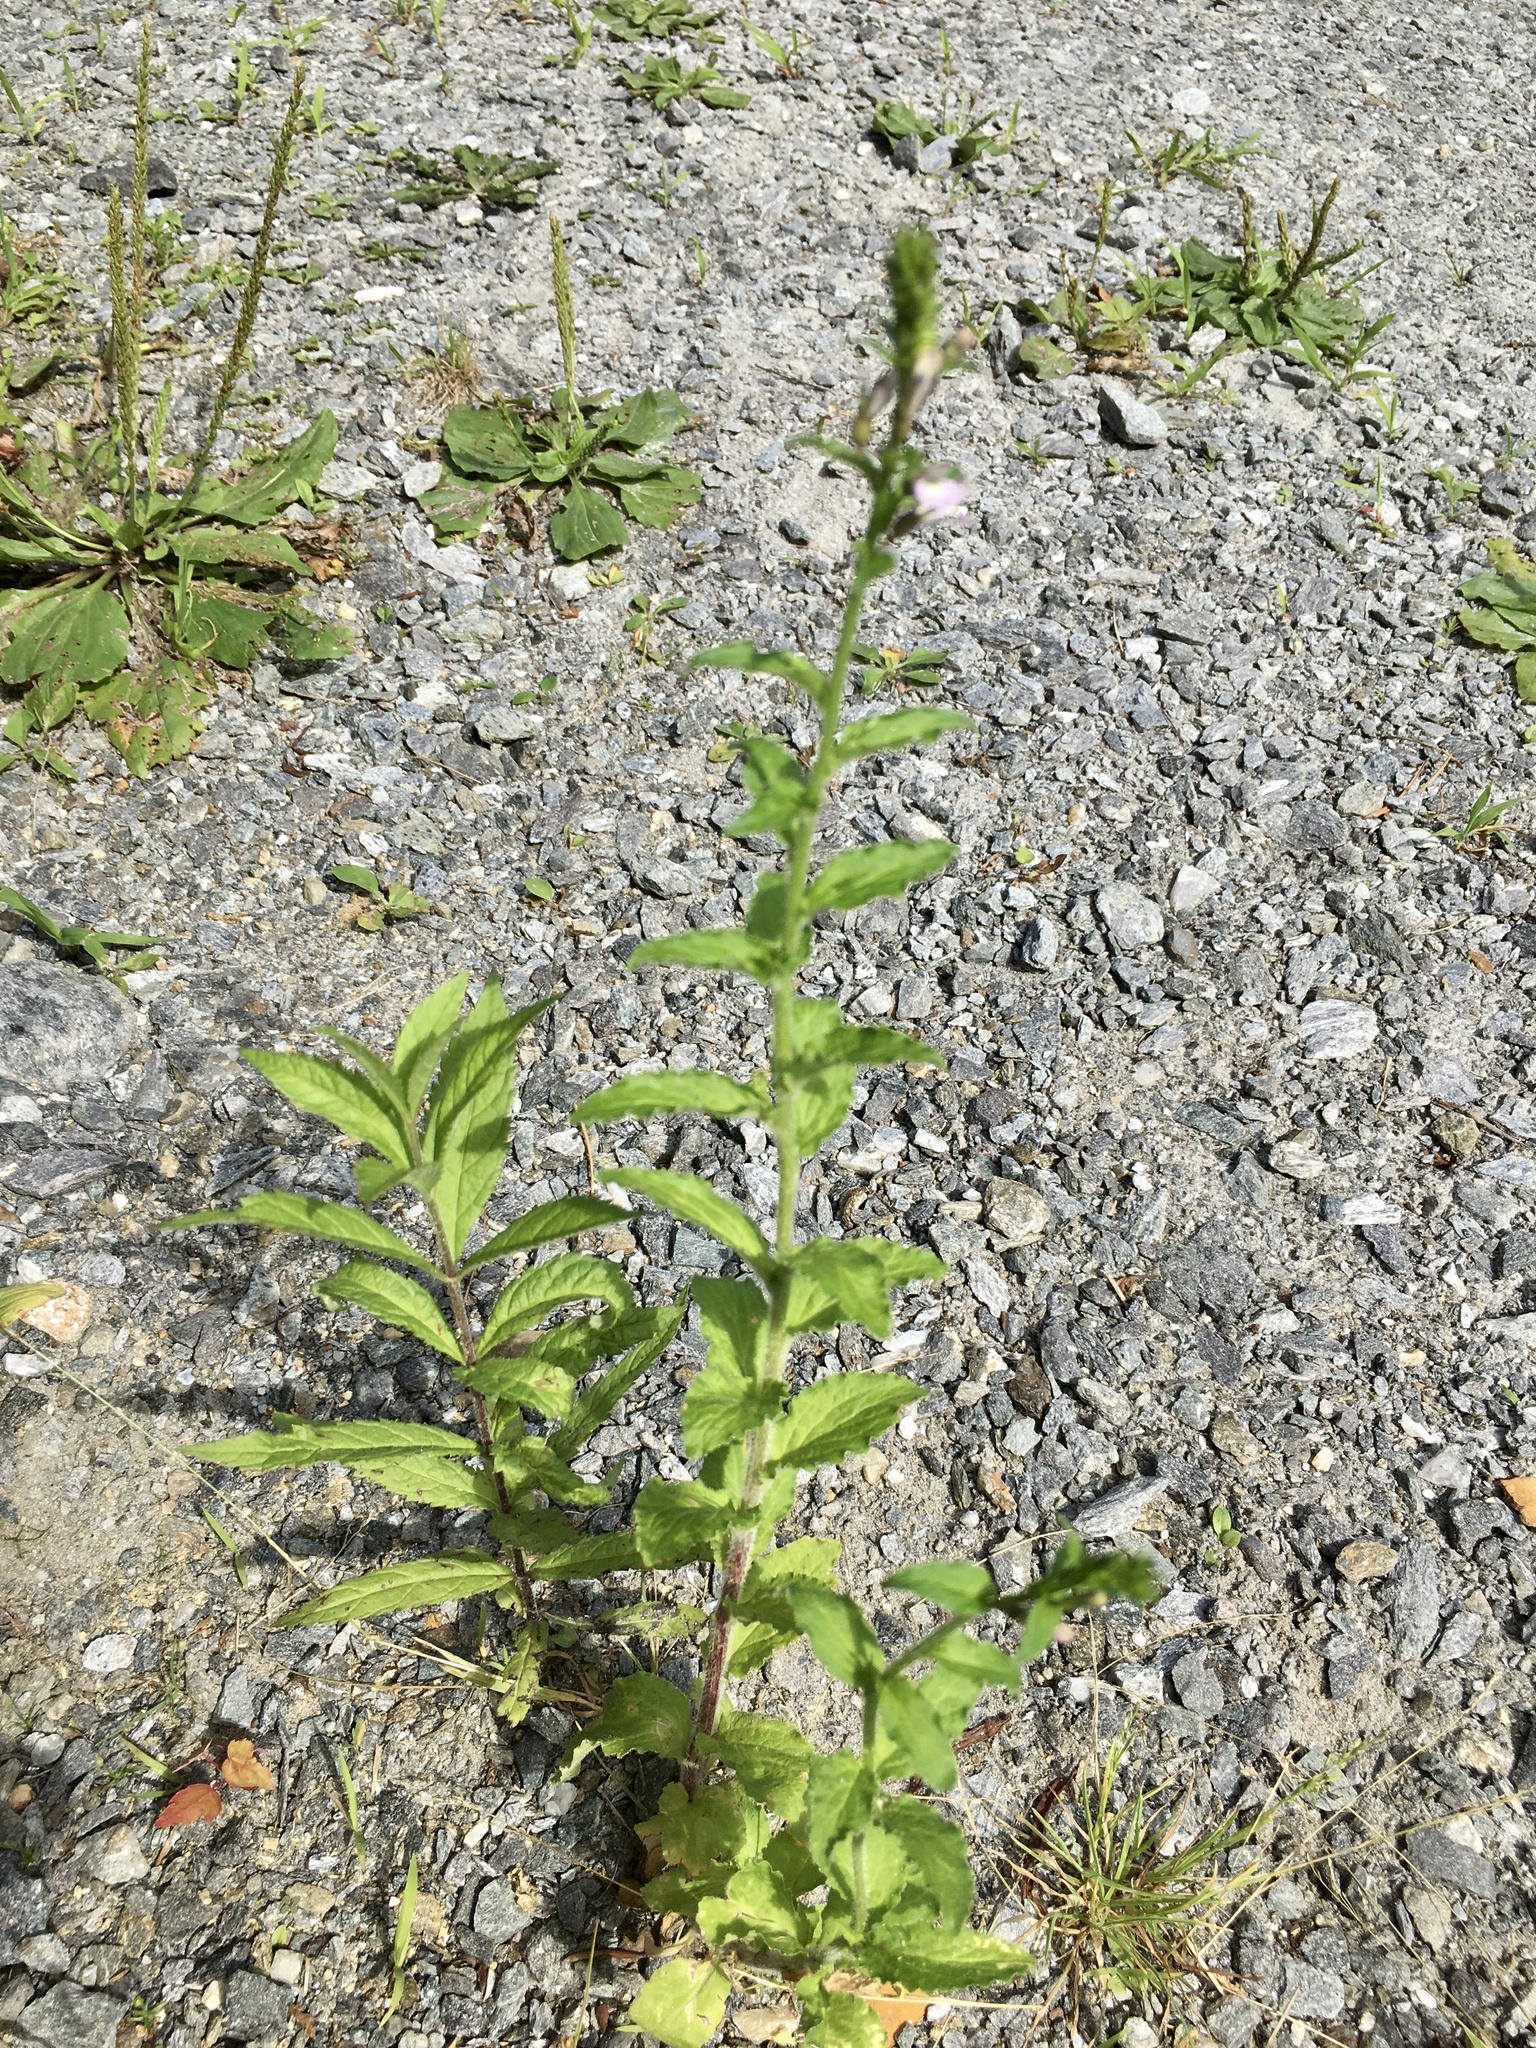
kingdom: Plantae
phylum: Tracheophyta
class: Magnoliopsida
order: Asterales
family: Campanulaceae
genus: Lobelia
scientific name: Lobelia inflata
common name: Indian tobacco
